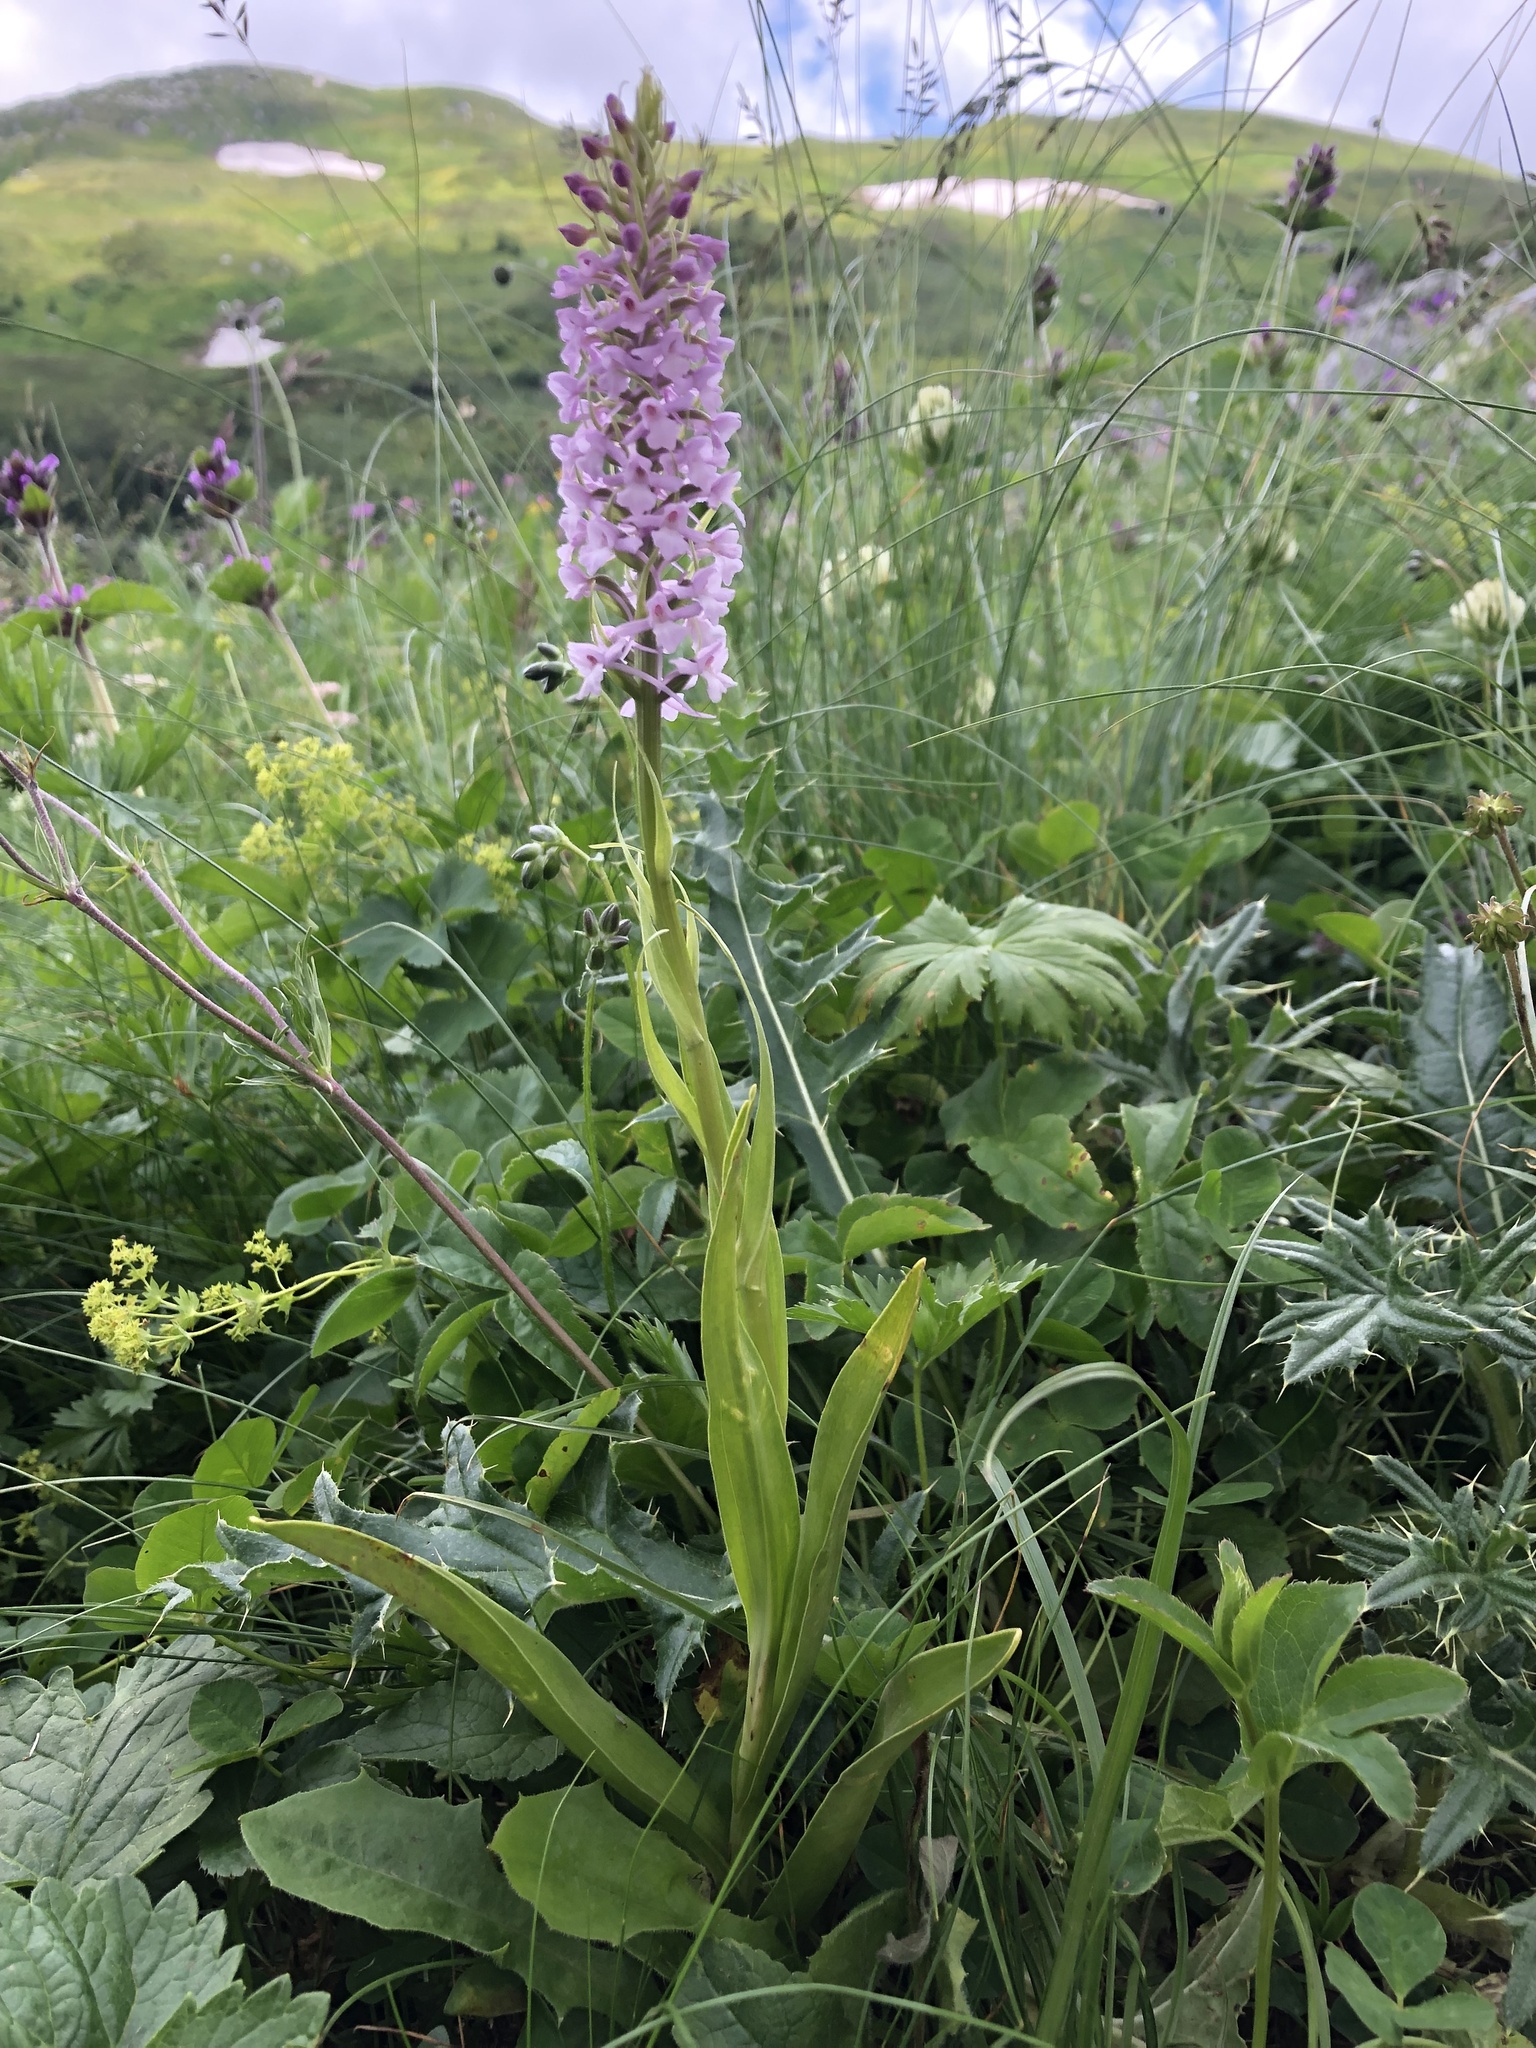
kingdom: Plantae
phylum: Tracheophyta
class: Liliopsida
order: Asparagales
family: Orchidaceae
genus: Gymnadenia
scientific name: Gymnadenia conopsea
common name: Fragrant orchid
